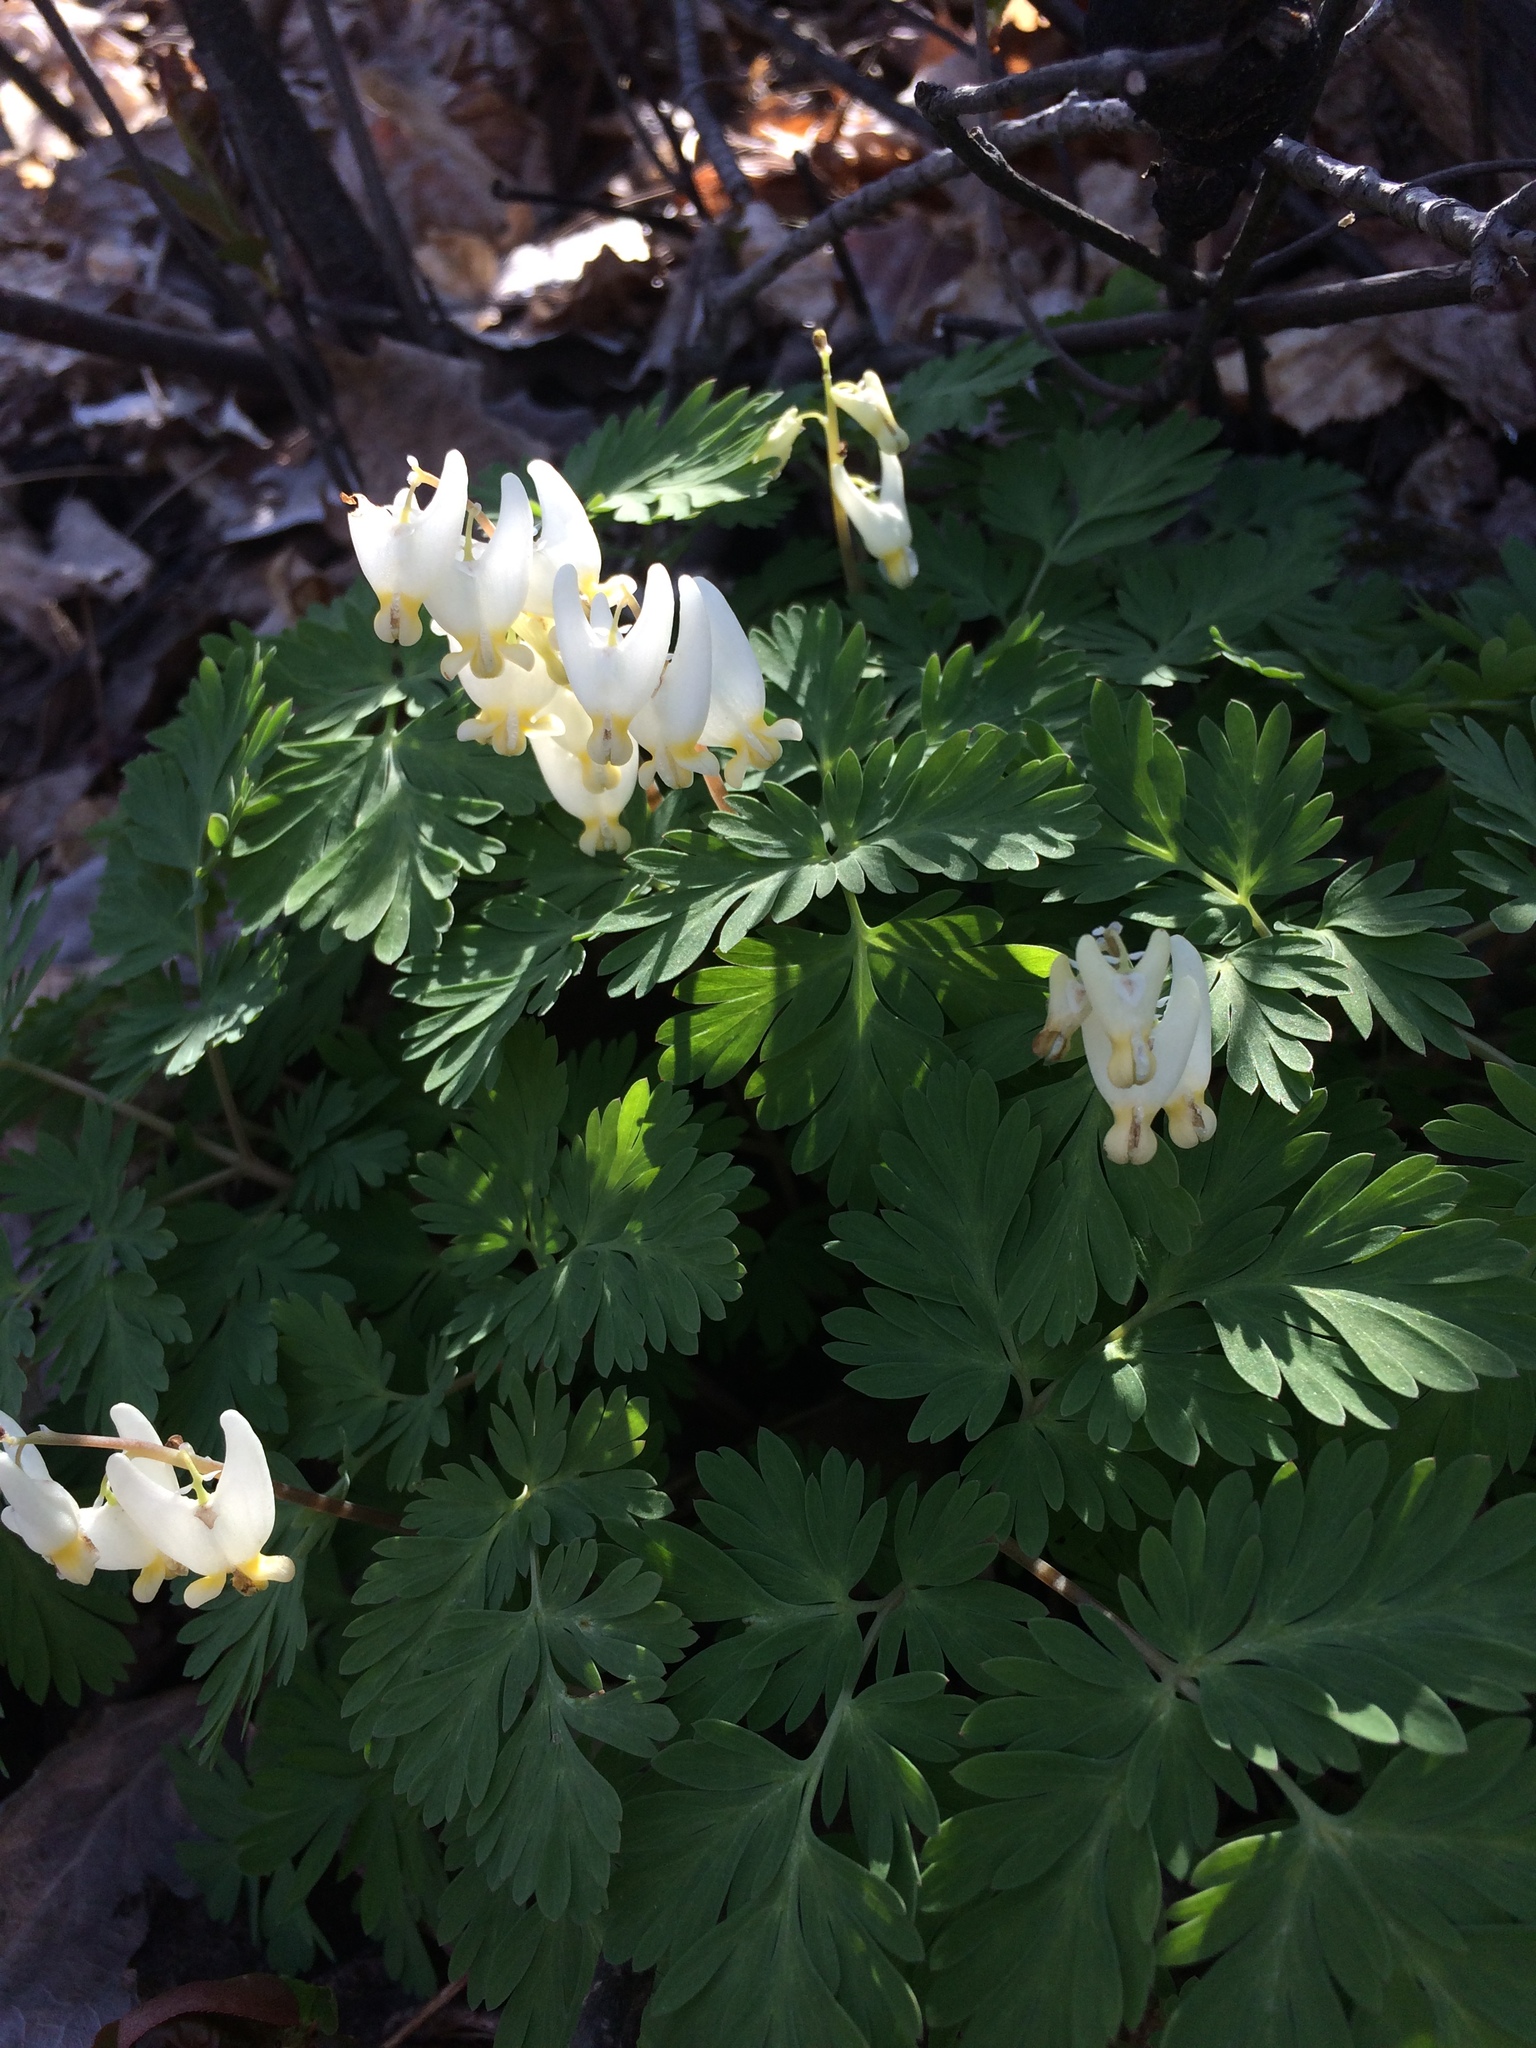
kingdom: Plantae
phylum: Tracheophyta
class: Magnoliopsida
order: Ranunculales
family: Papaveraceae
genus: Dicentra
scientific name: Dicentra cucullaria
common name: Dutchman's breeches
